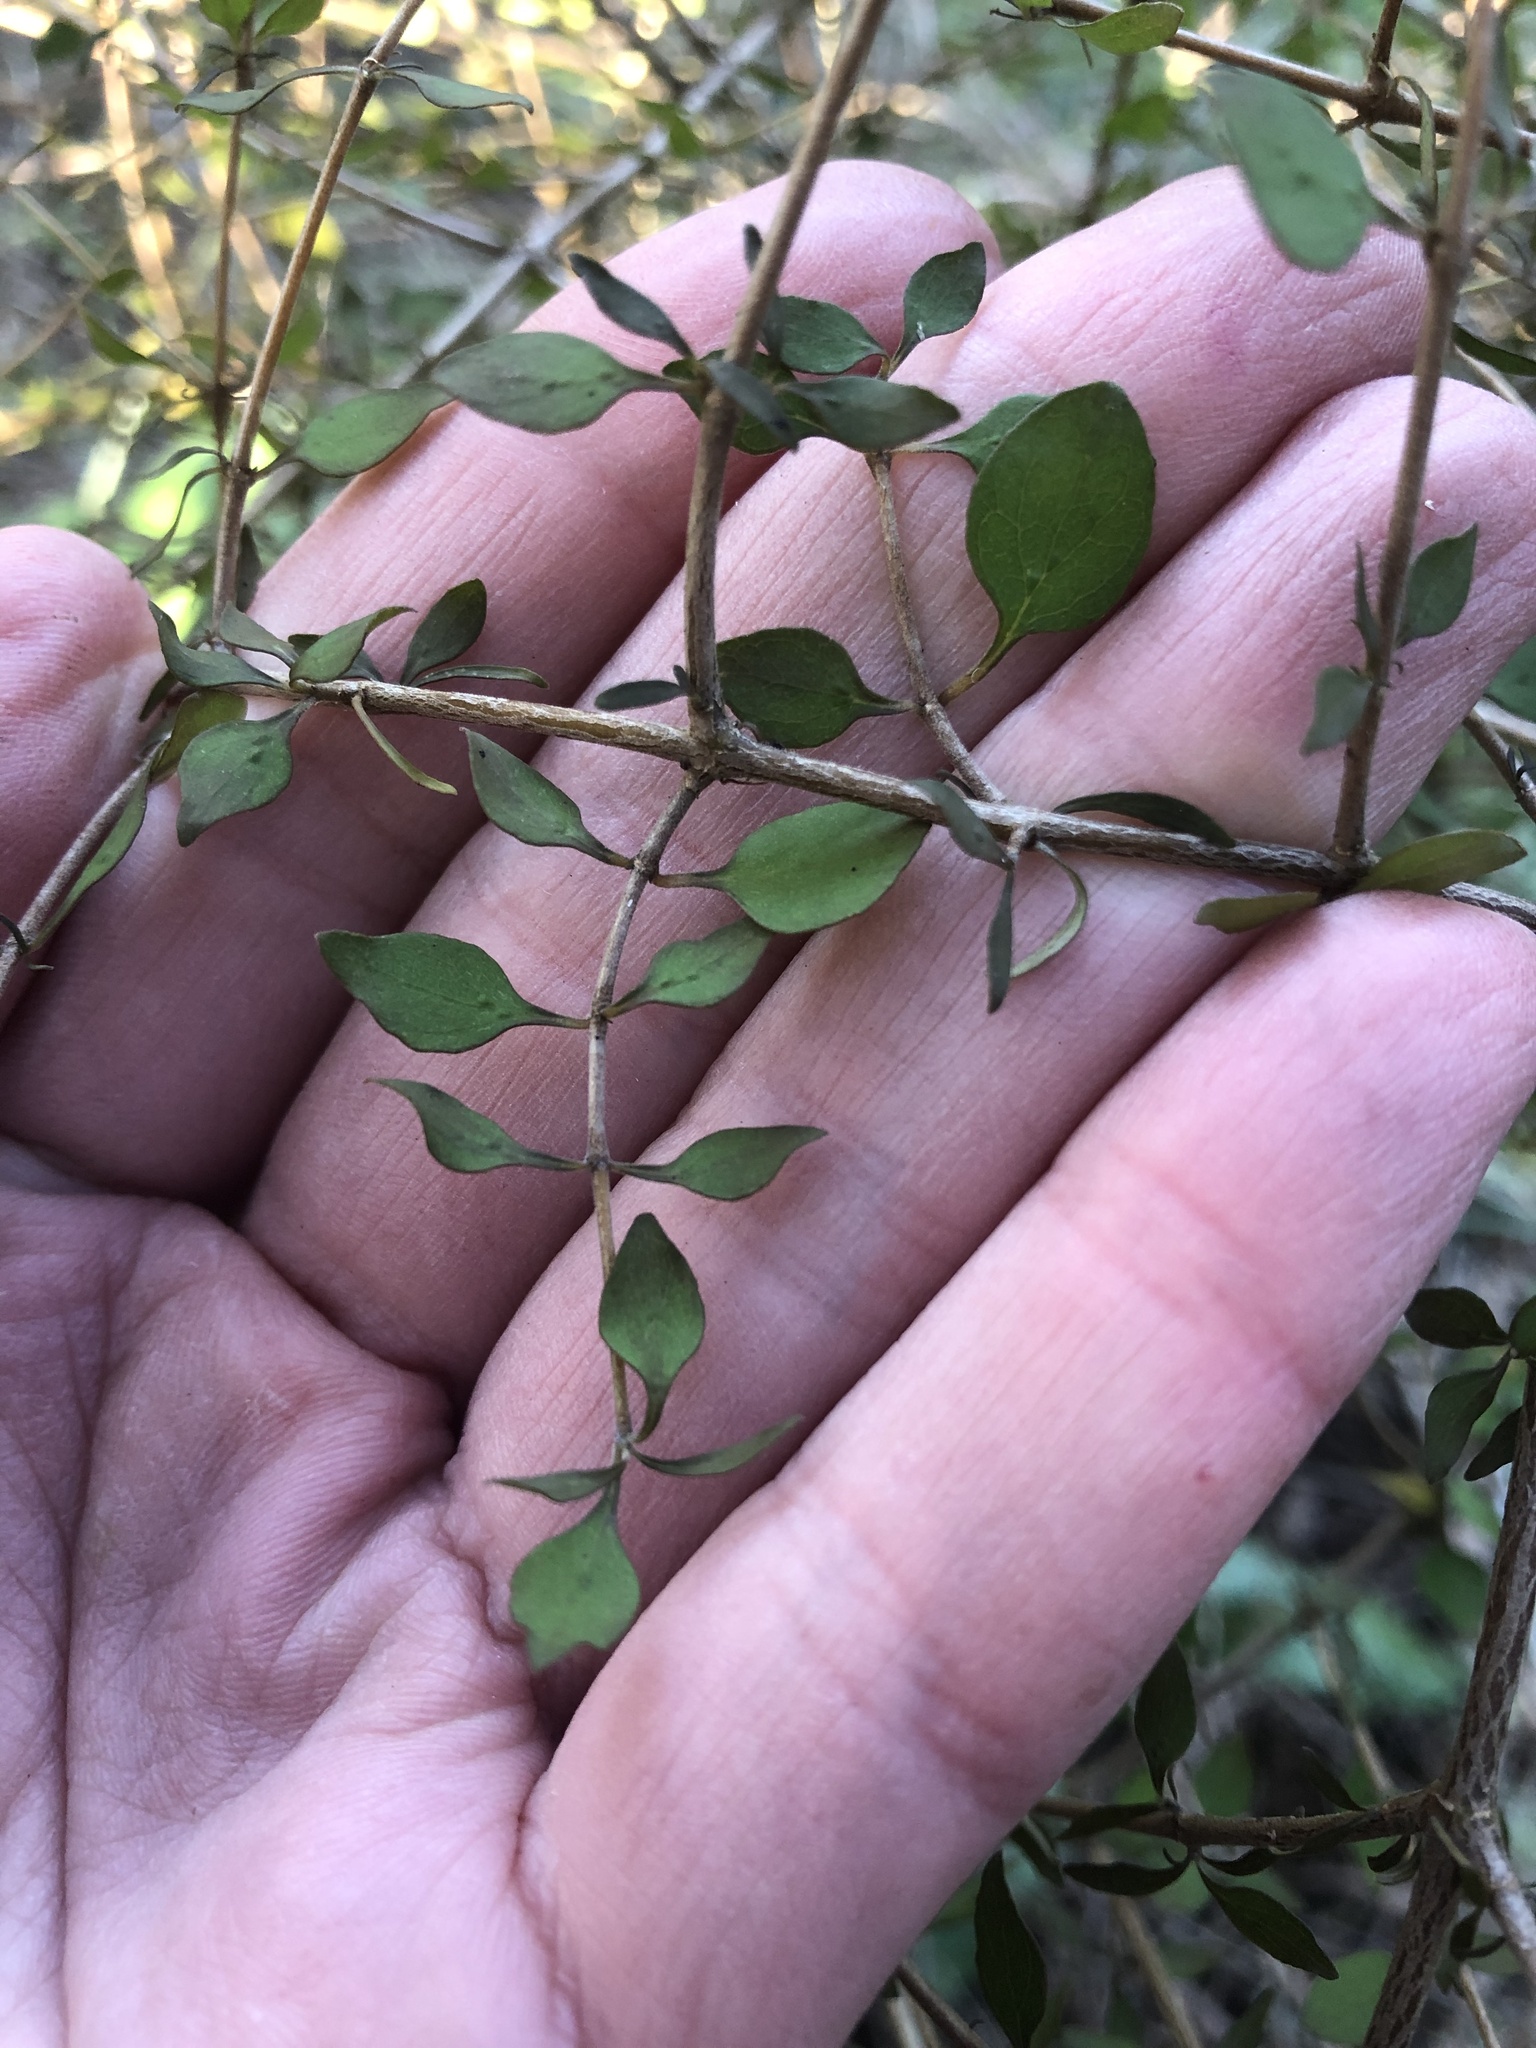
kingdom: Plantae
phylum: Tracheophyta
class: Magnoliopsida
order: Gentianales
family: Rubiaceae
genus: Coprosma
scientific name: Coprosma rhamnoides
